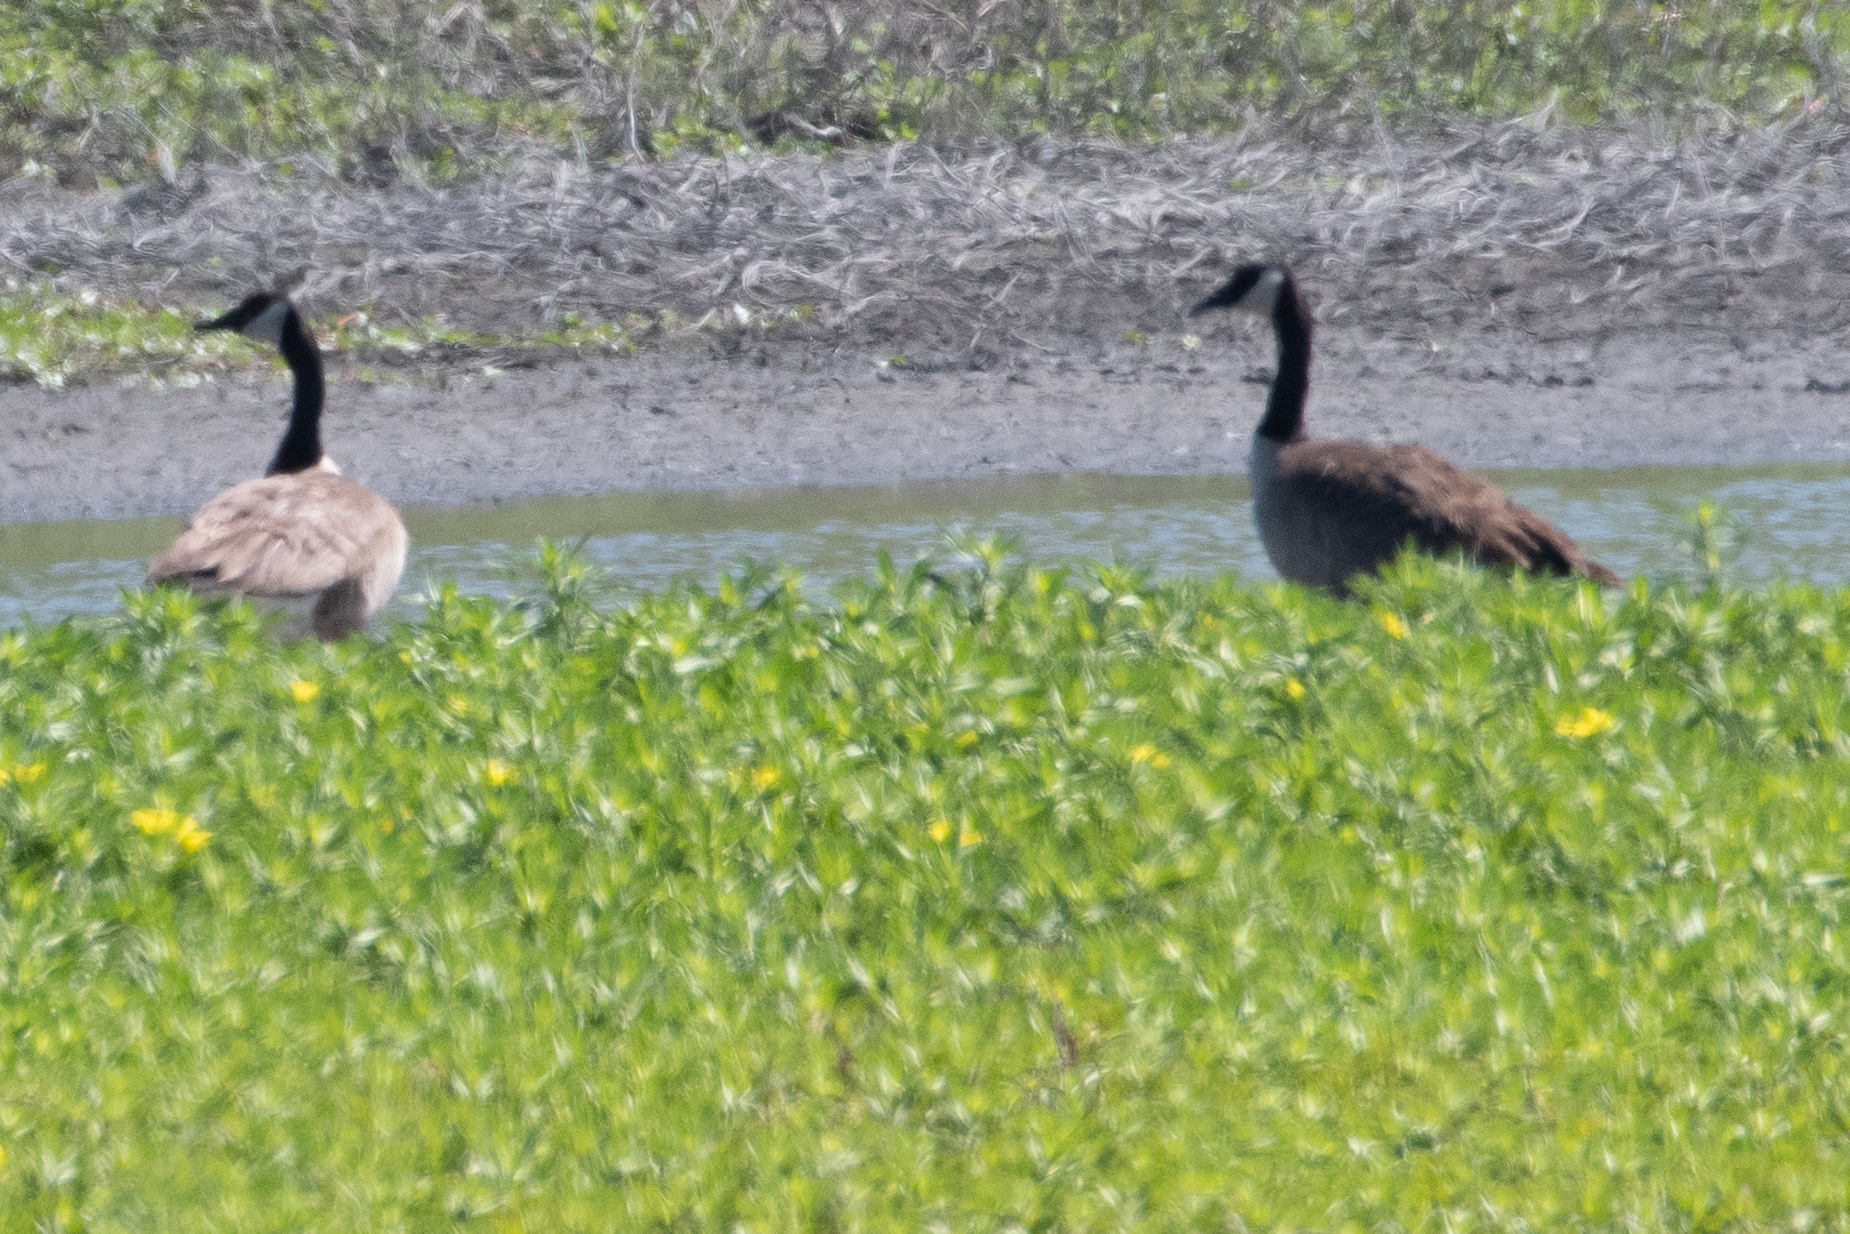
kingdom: Animalia
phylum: Chordata
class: Aves
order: Anseriformes
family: Anatidae
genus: Branta
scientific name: Branta canadensis
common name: Canada goose
